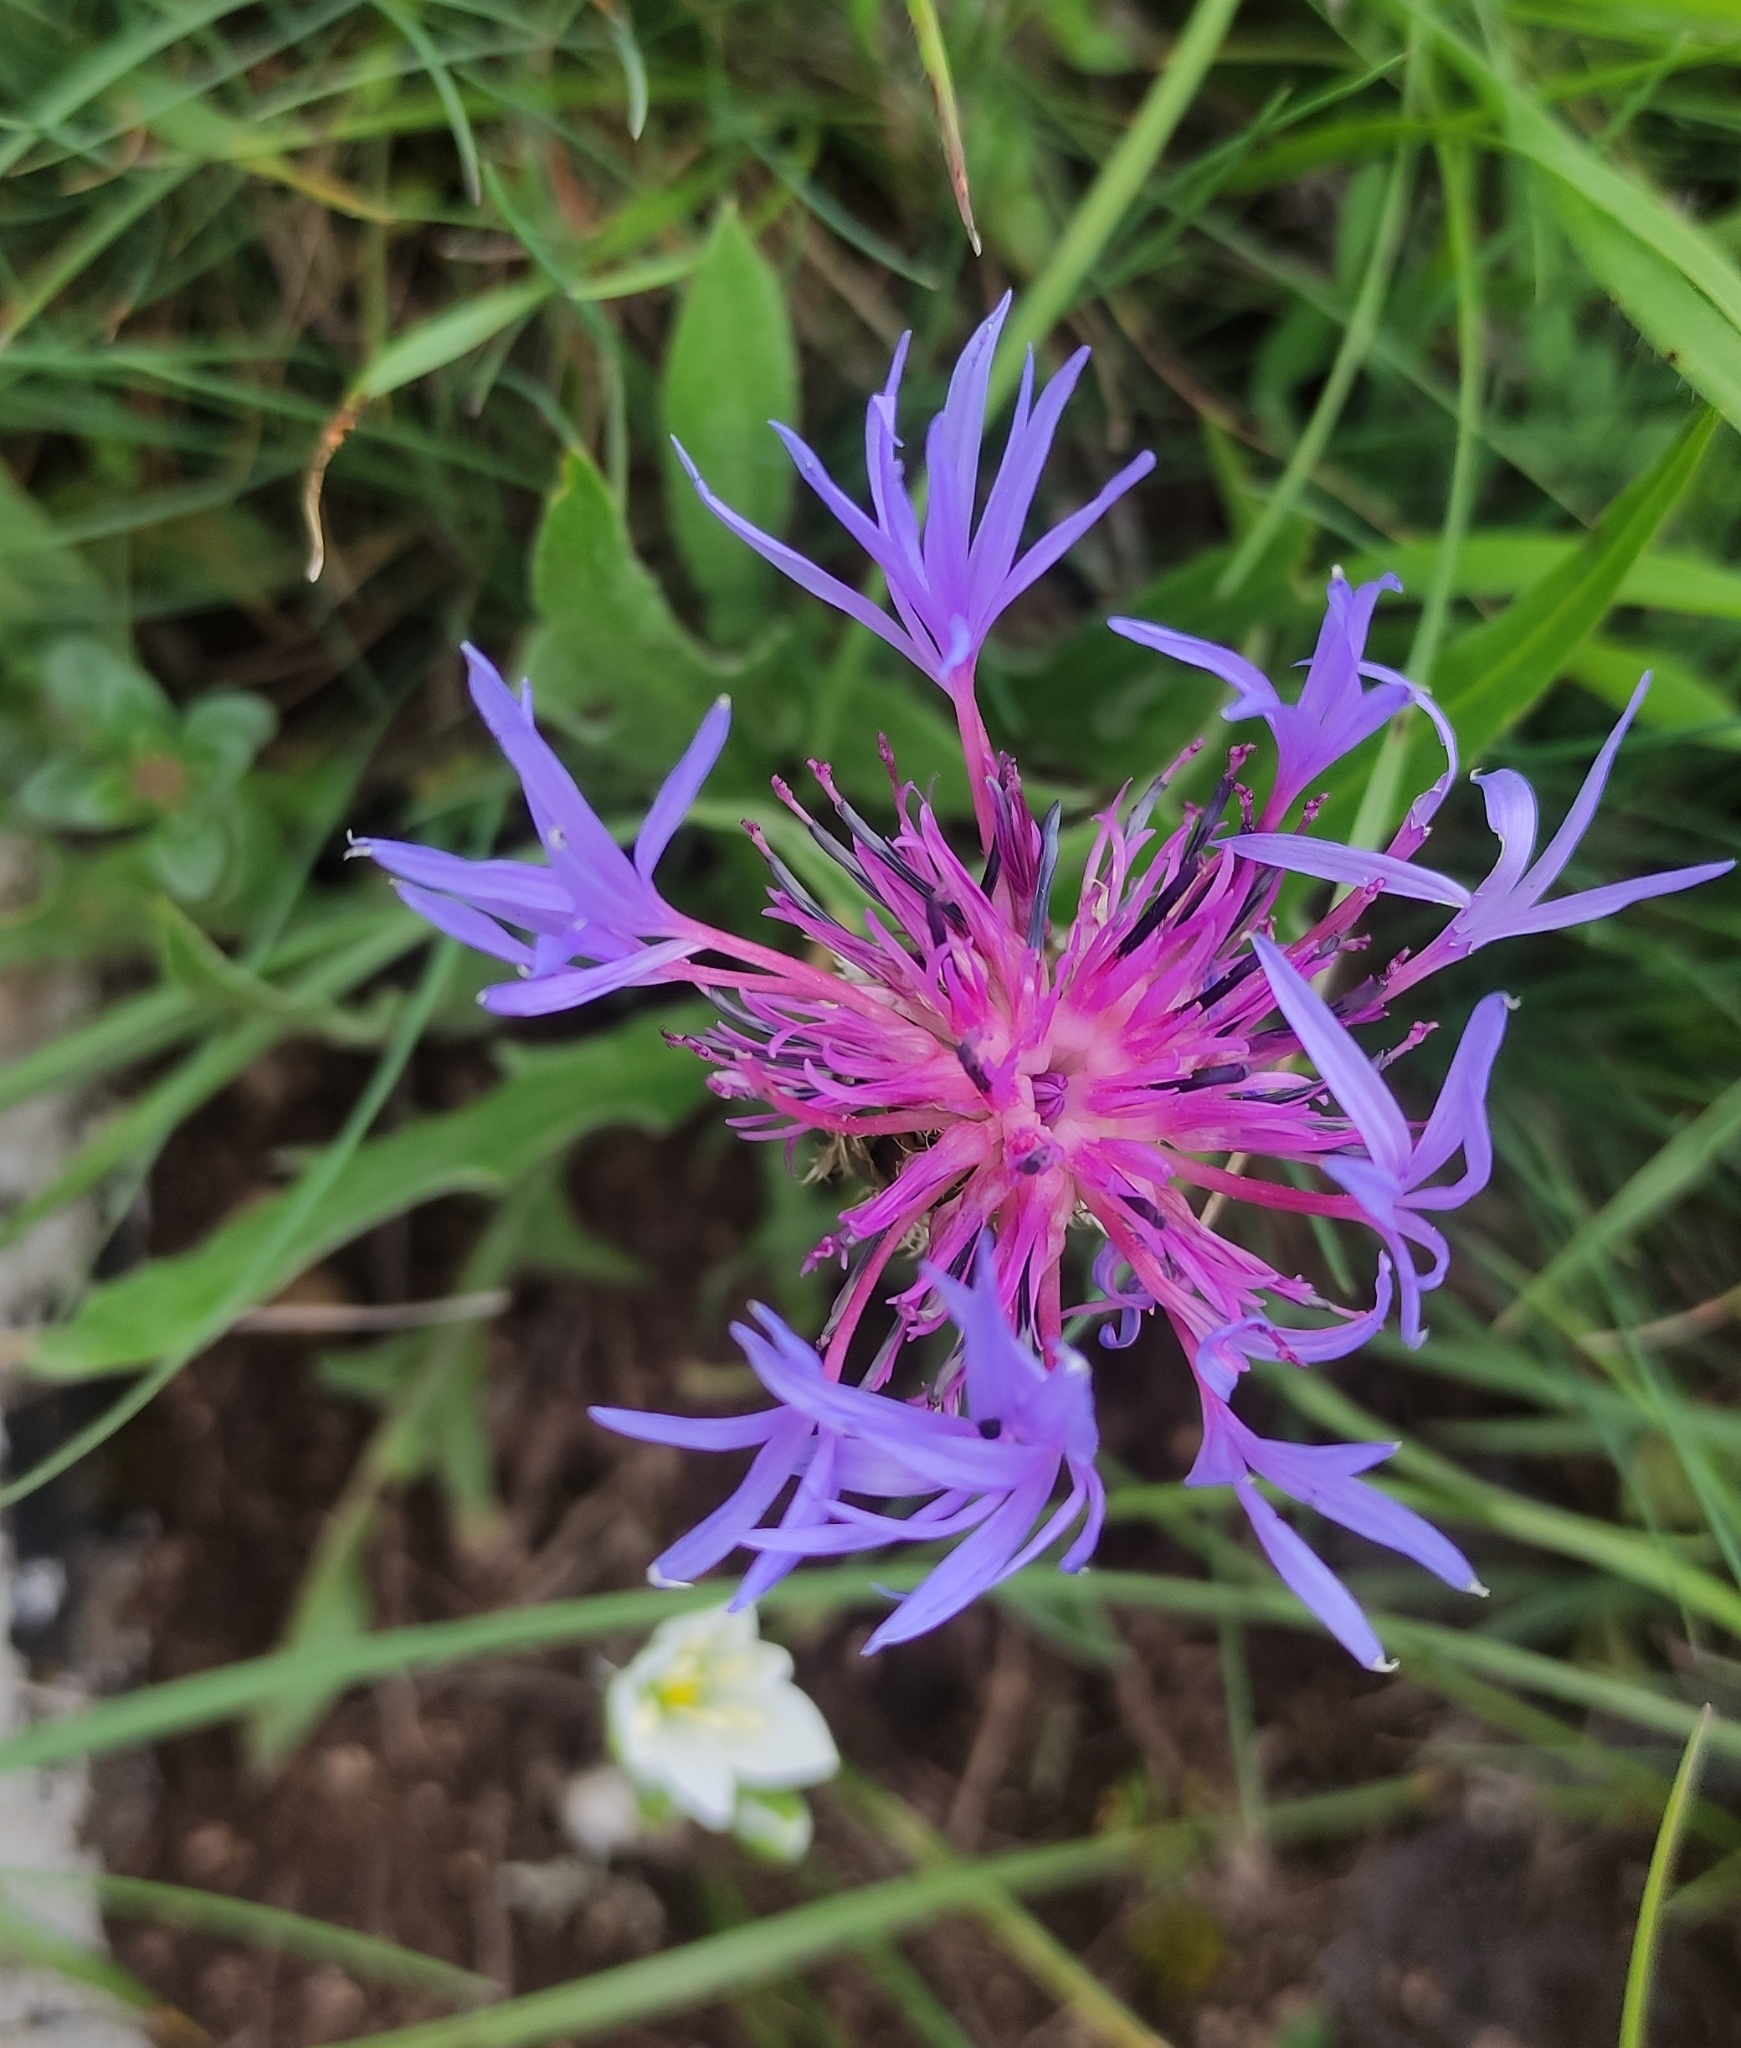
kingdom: Plantae
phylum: Tracheophyta
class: Magnoliopsida
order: Asterales
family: Asteraceae
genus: Centaurea
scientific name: Centaurea triumfettii
